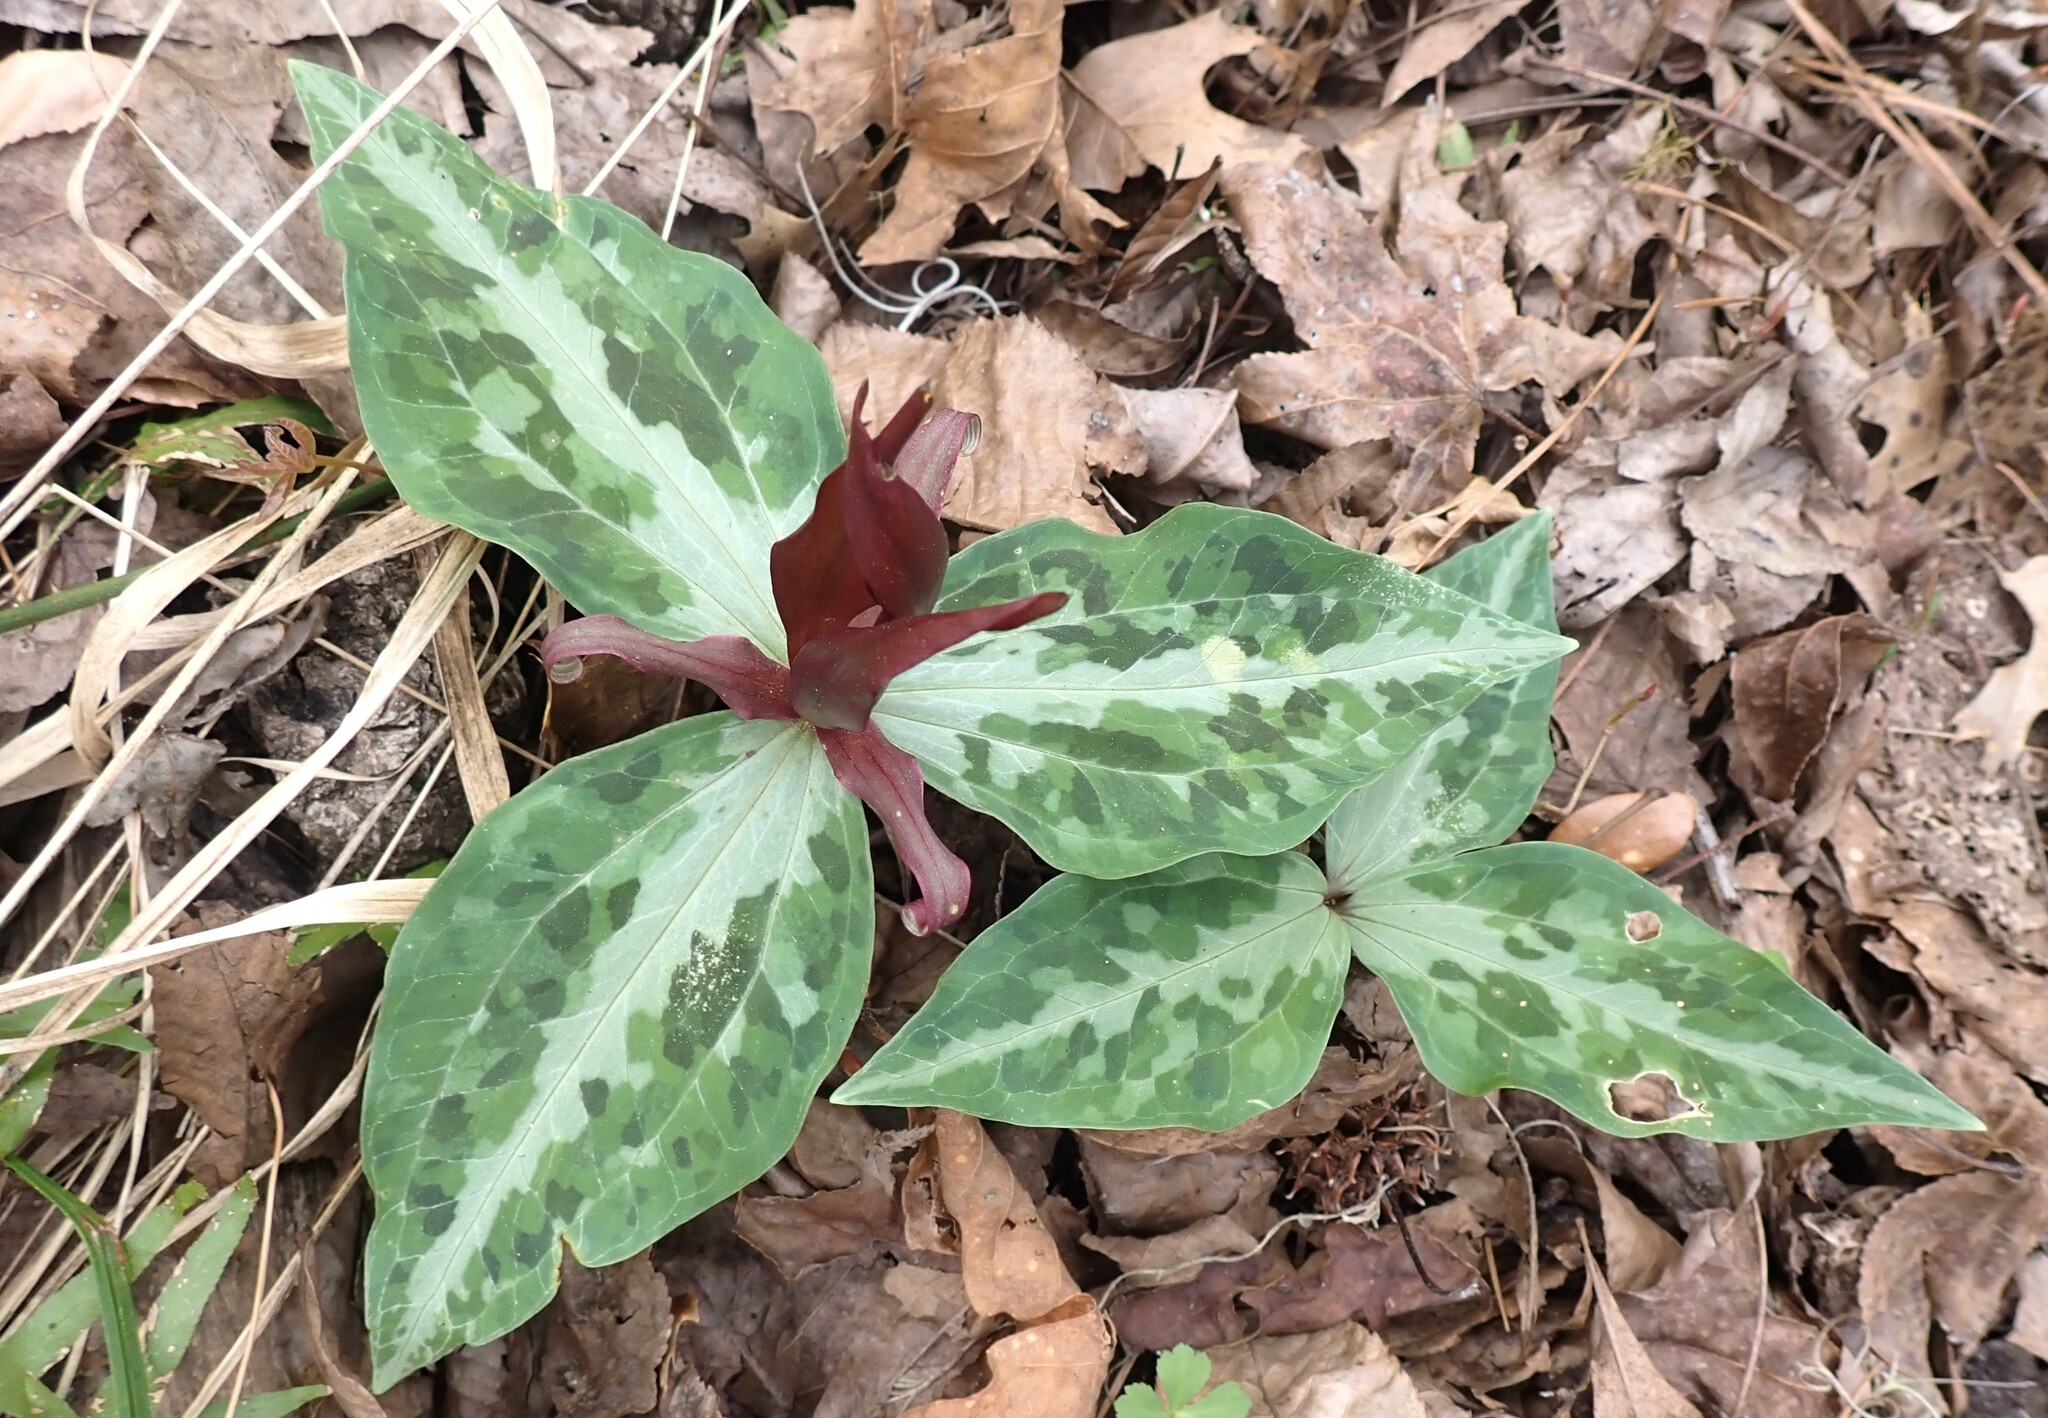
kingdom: Plantae
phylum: Tracheophyta
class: Liliopsida
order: Liliales
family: Melanthiaceae
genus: Trillium
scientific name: Trillium underwoodii
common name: Longbract wakerobin
